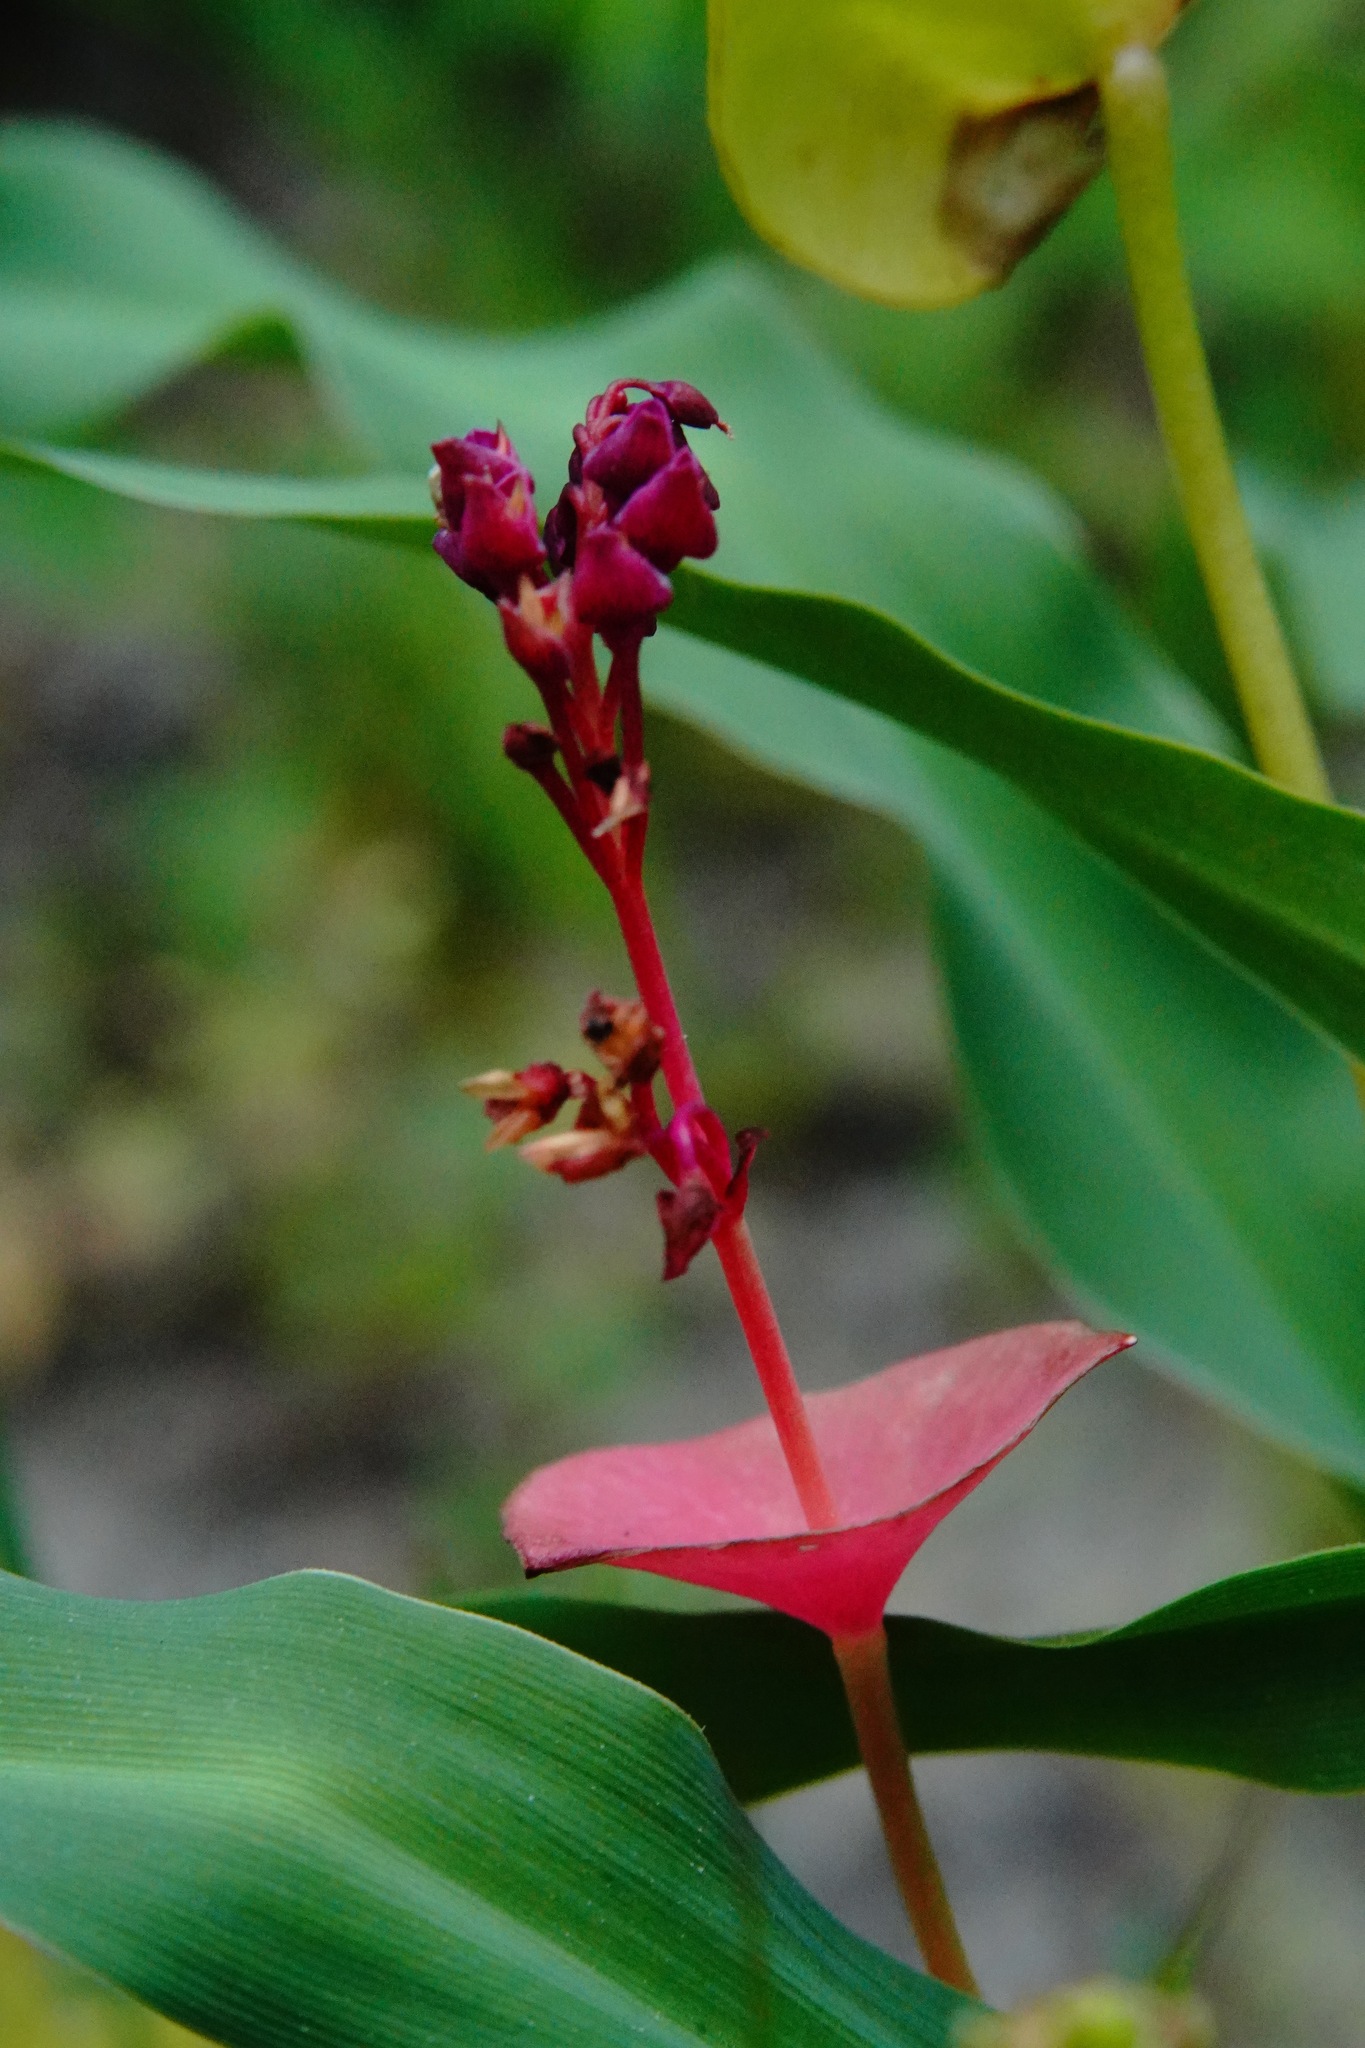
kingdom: Plantae
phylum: Tracheophyta
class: Magnoliopsida
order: Caryophyllales
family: Montiaceae
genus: Claytonia
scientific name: Claytonia perfoliata
